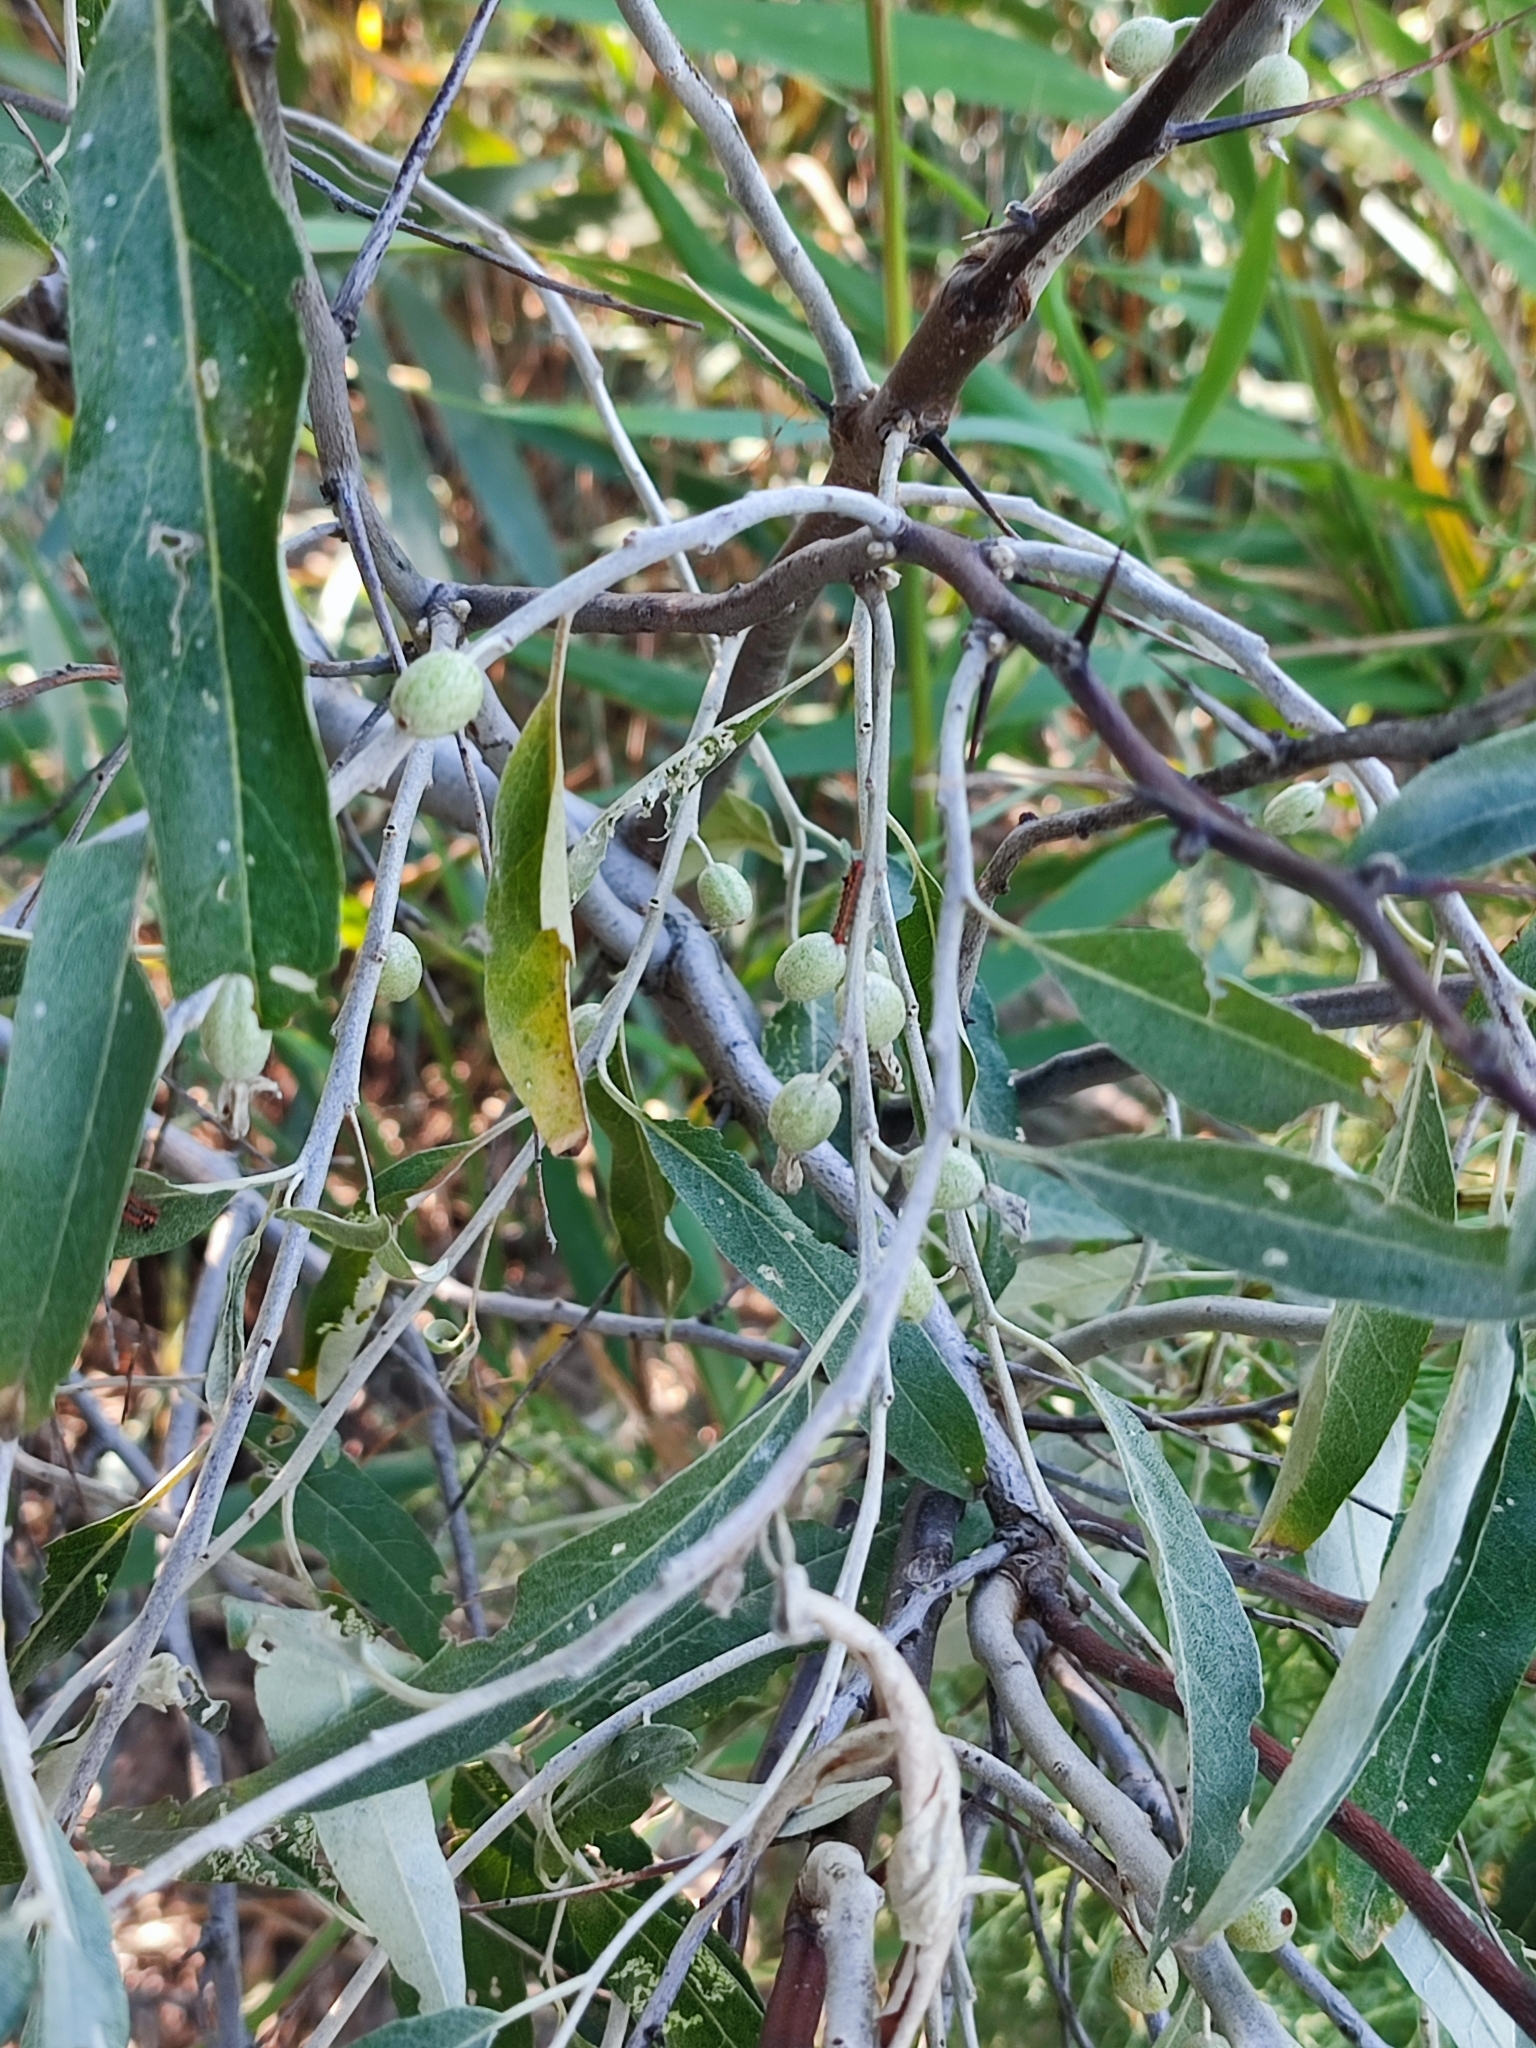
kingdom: Plantae
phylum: Tracheophyta
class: Magnoliopsida
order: Rosales
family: Elaeagnaceae
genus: Elaeagnus
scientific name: Elaeagnus angustifolia
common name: Russian olive
